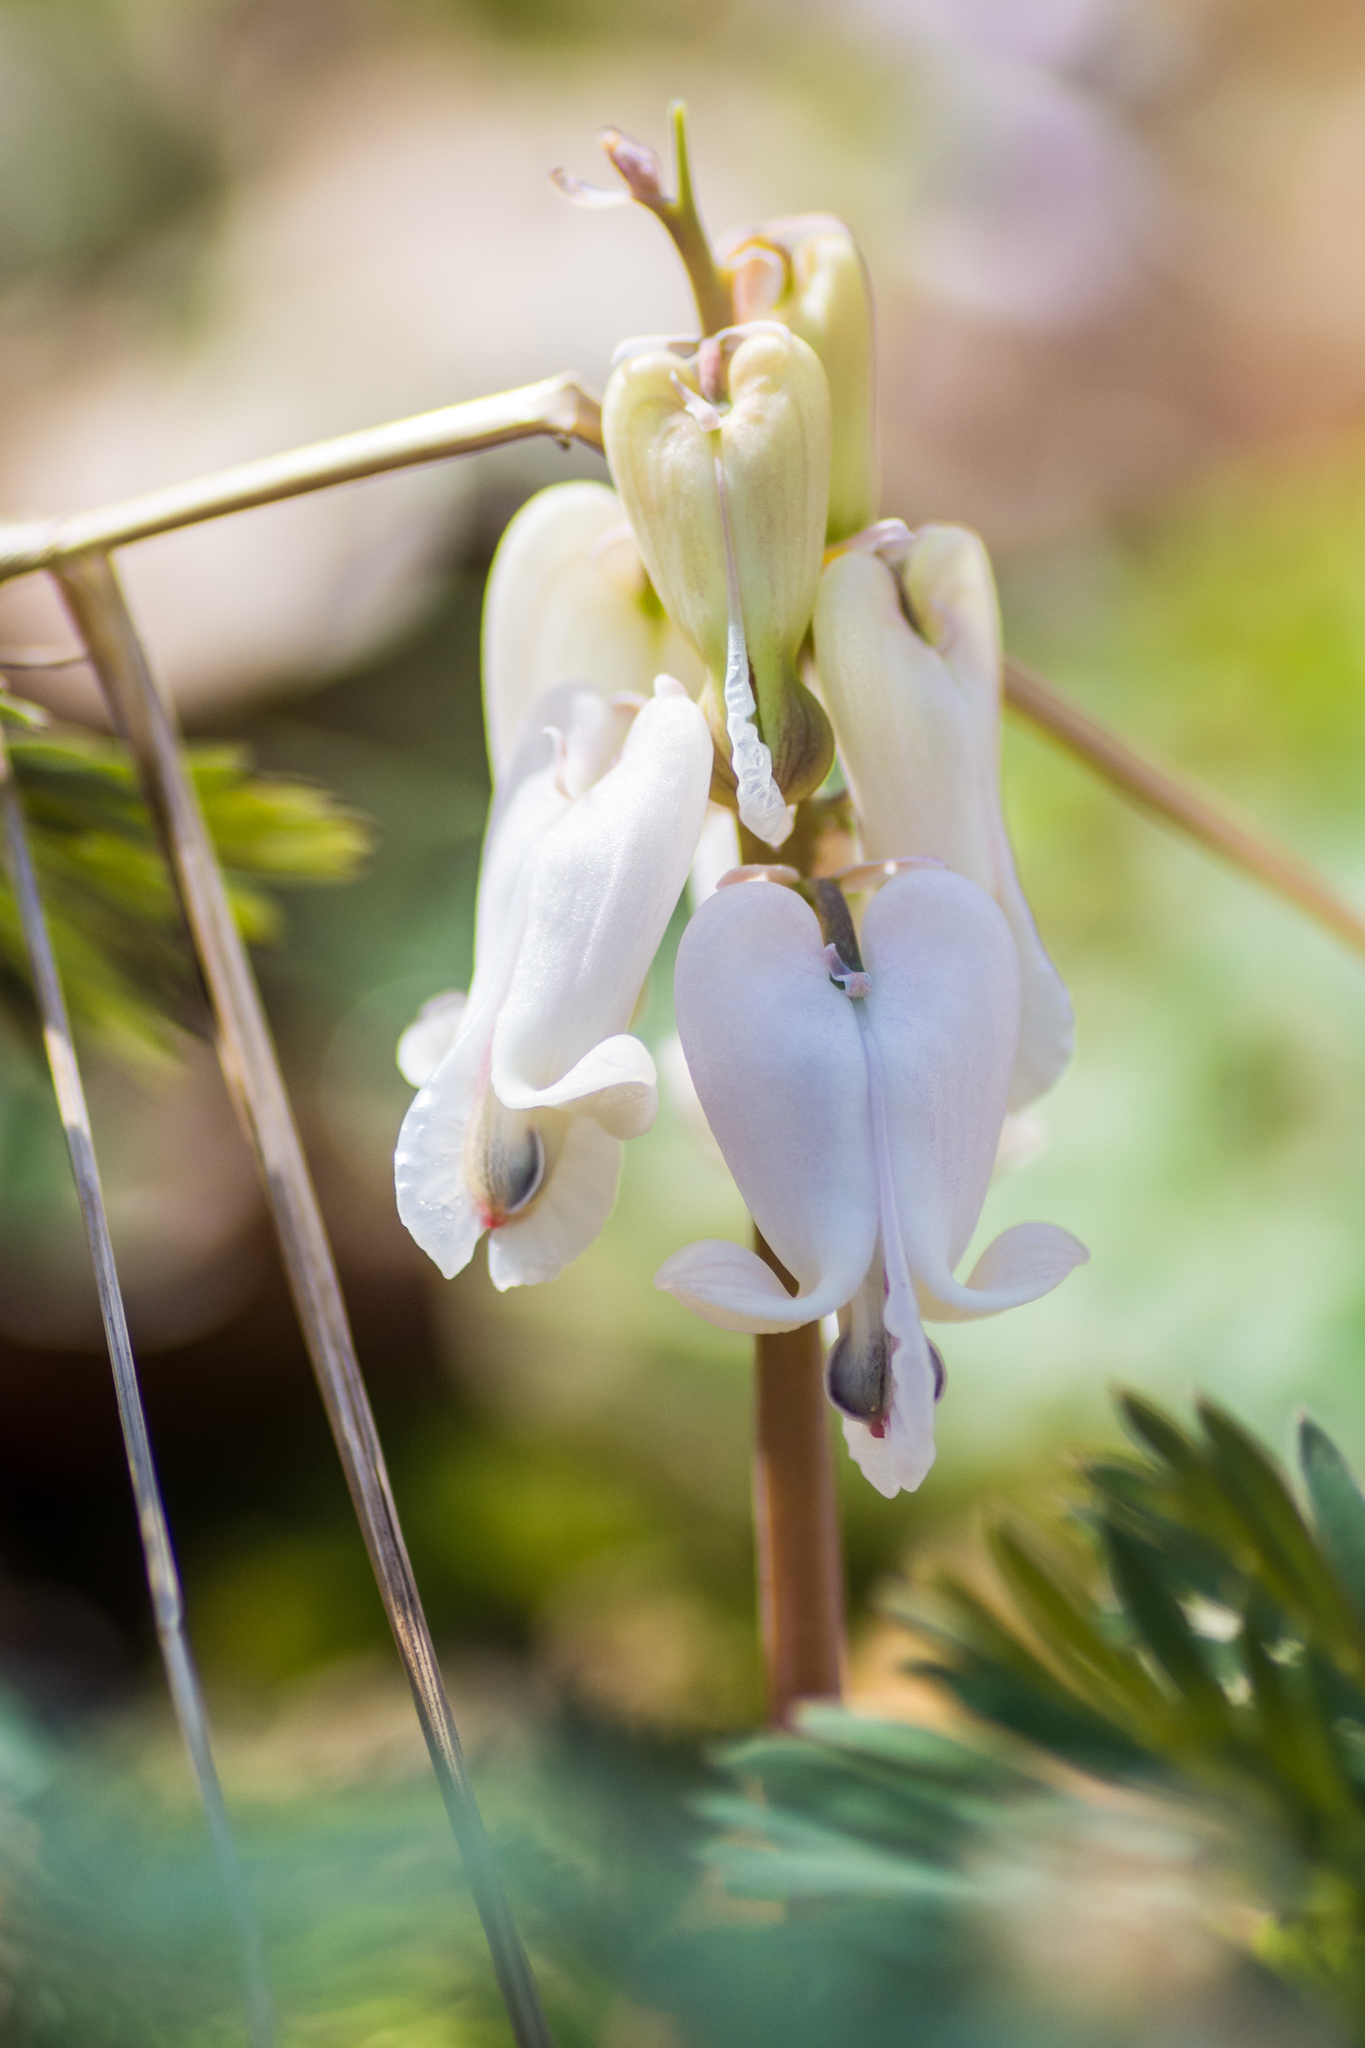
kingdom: Plantae
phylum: Tracheophyta
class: Magnoliopsida
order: Ranunculales
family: Papaveraceae
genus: Dicentra
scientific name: Dicentra canadensis
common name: Squirrel-corn
